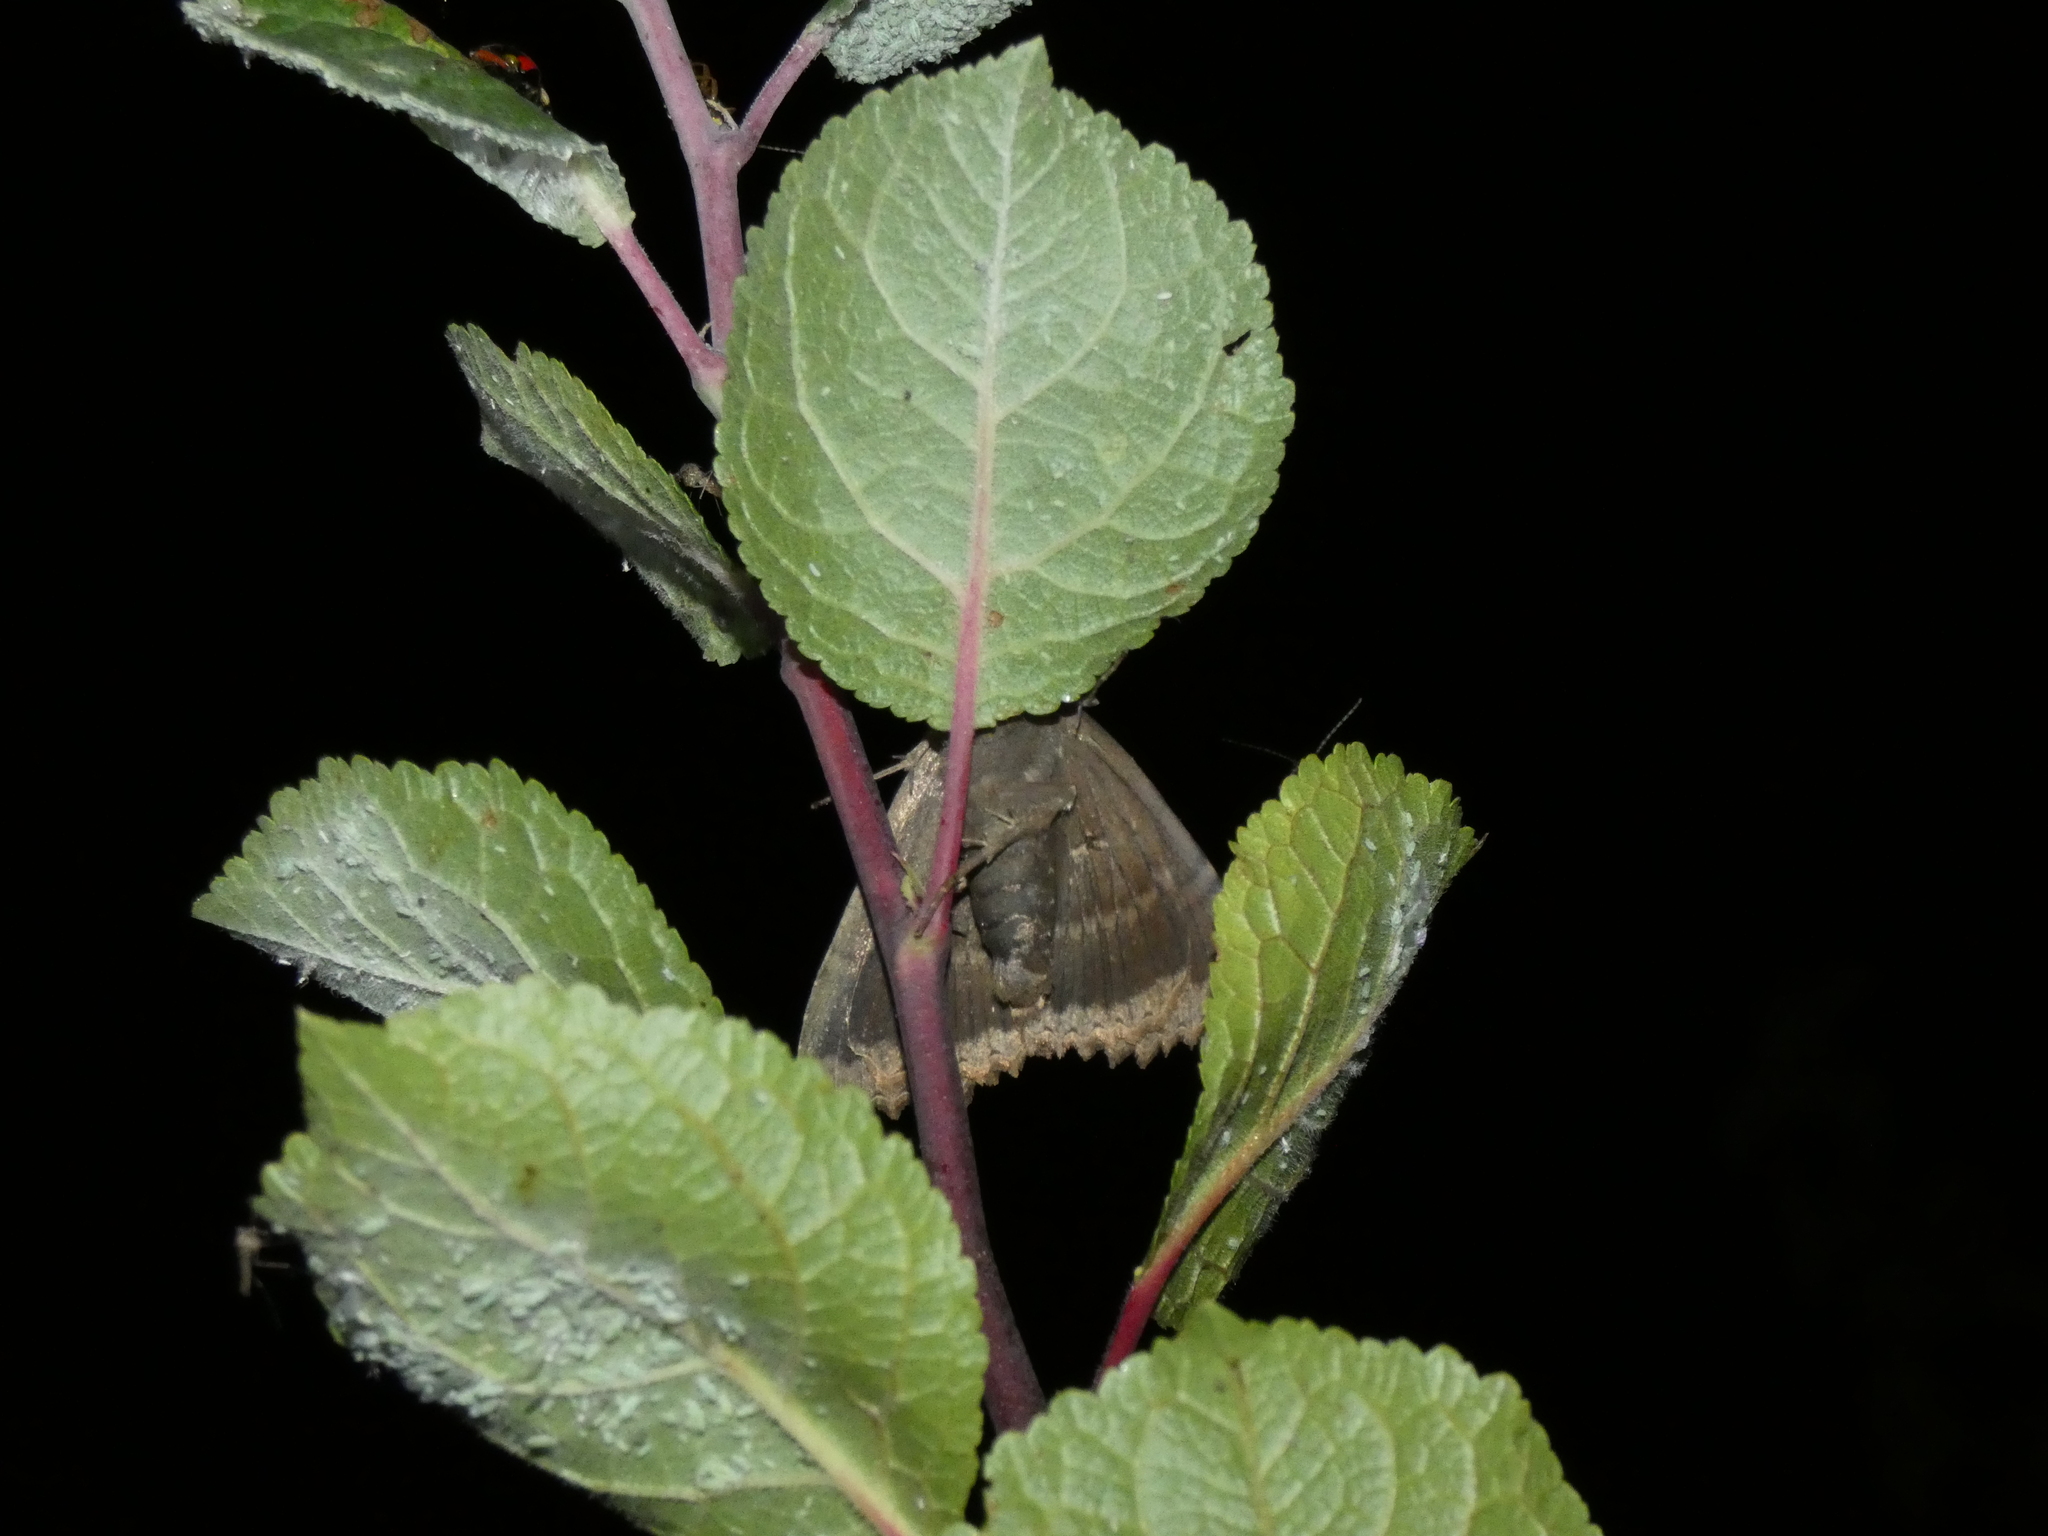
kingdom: Animalia
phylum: Arthropoda
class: Insecta
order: Lepidoptera
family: Noctuidae
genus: Mormo
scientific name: Mormo maura
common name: Old lady
